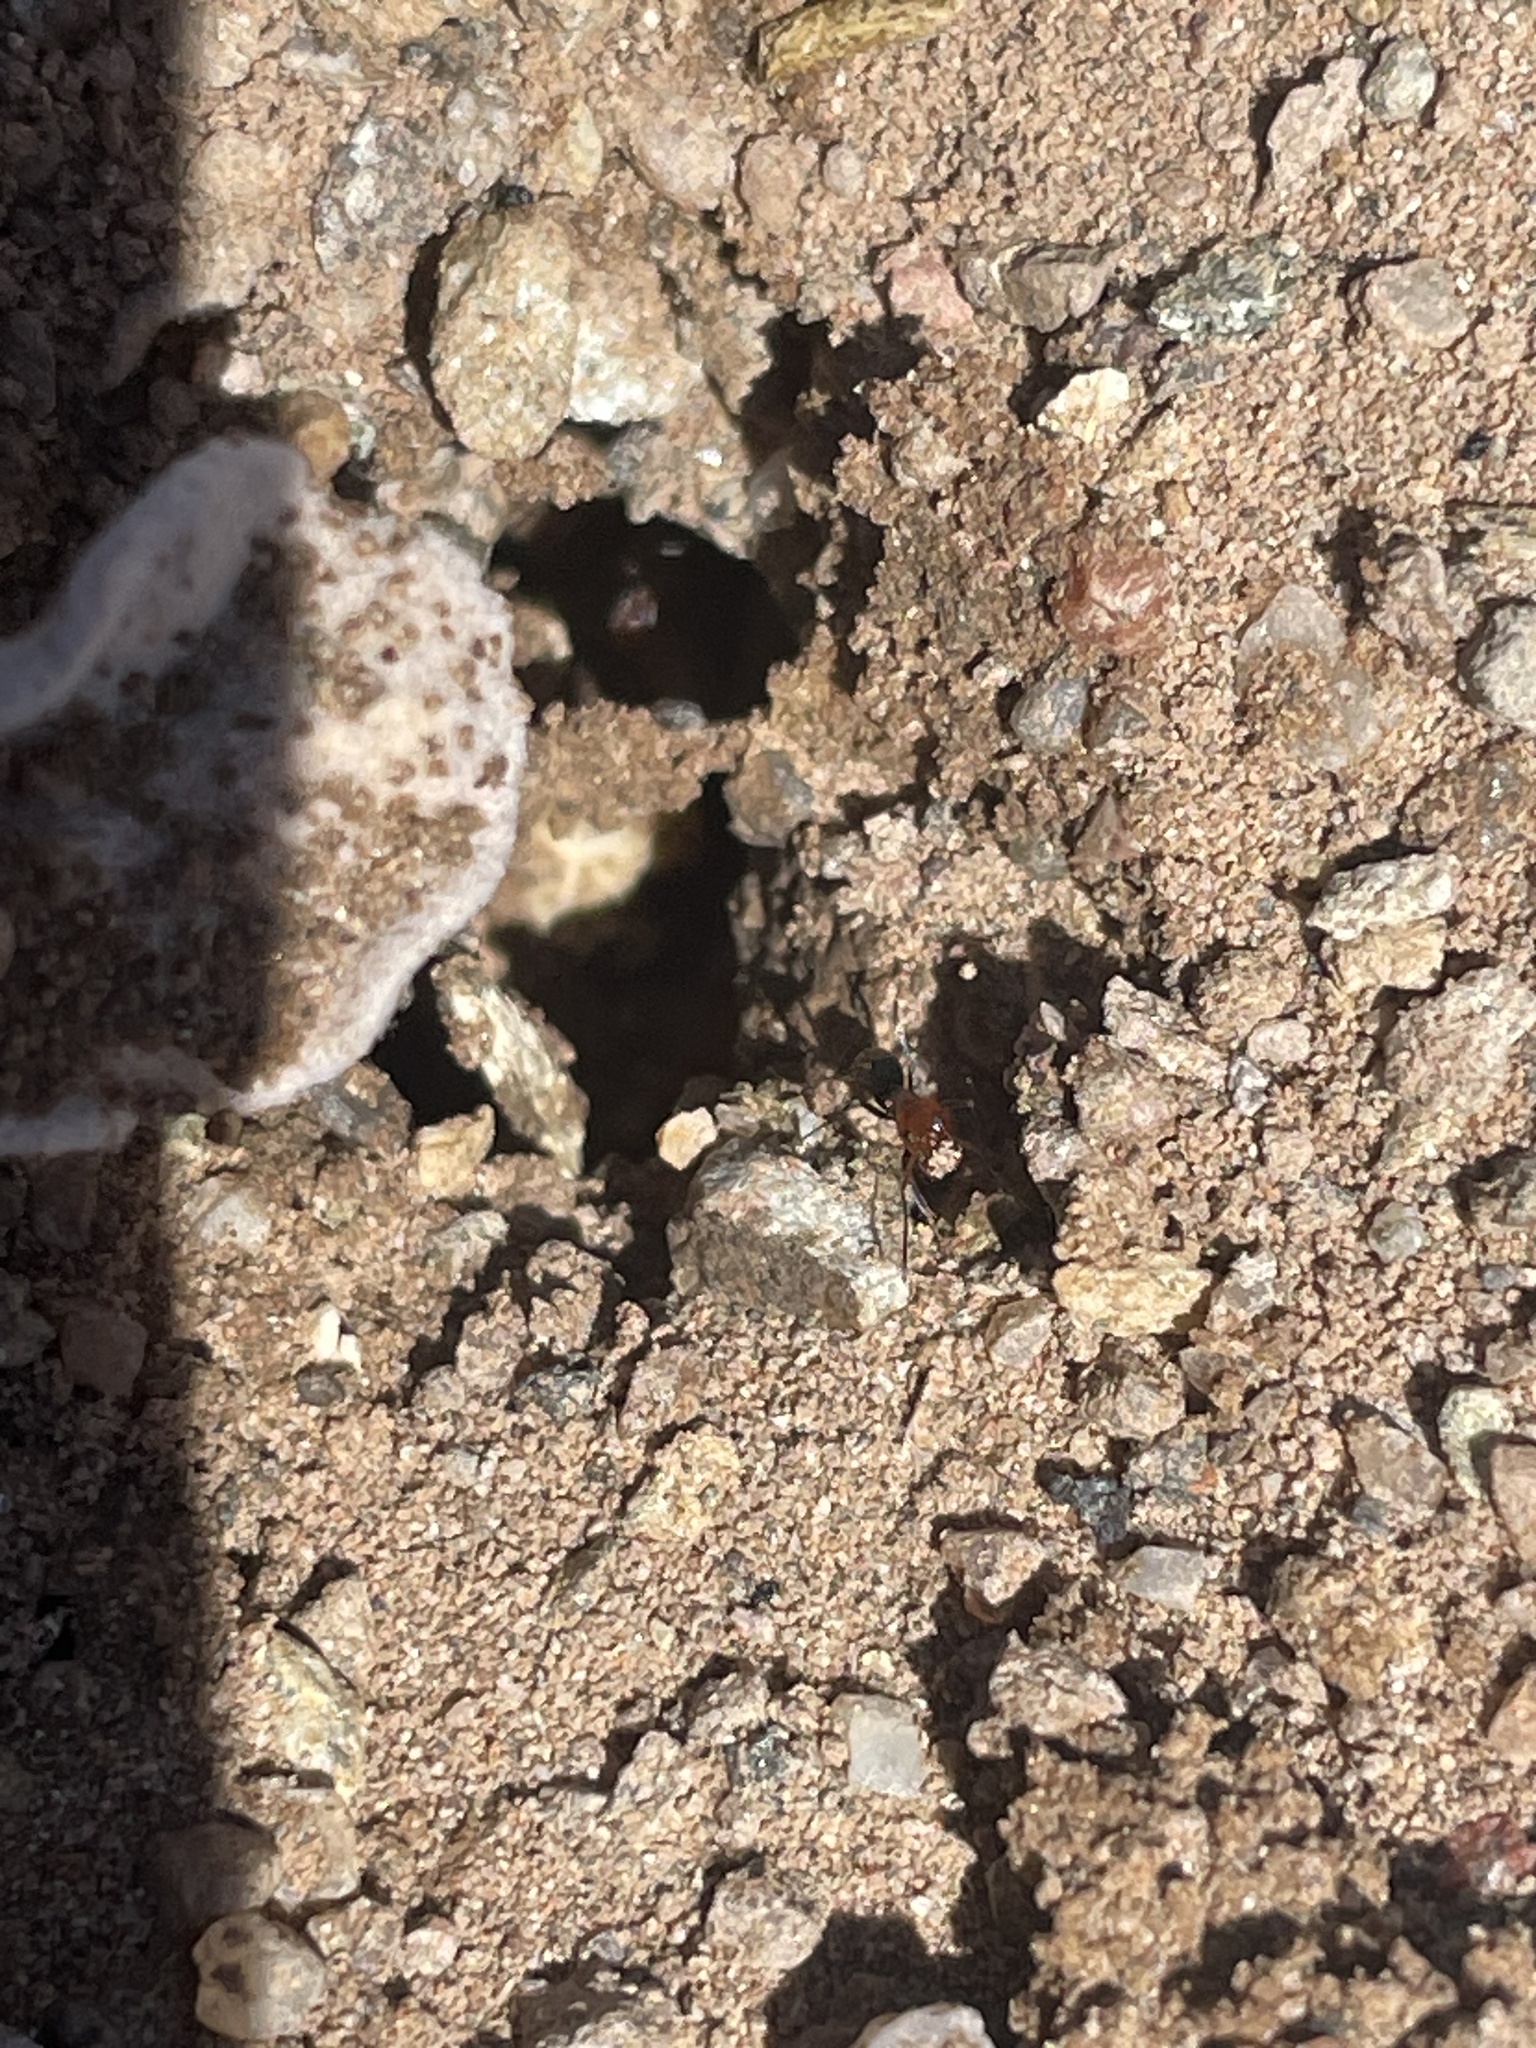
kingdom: Animalia
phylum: Arthropoda
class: Insecta
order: Hymenoptera
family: Formicidae
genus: Dorymyrmex
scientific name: Dorymyrmex bicolor
